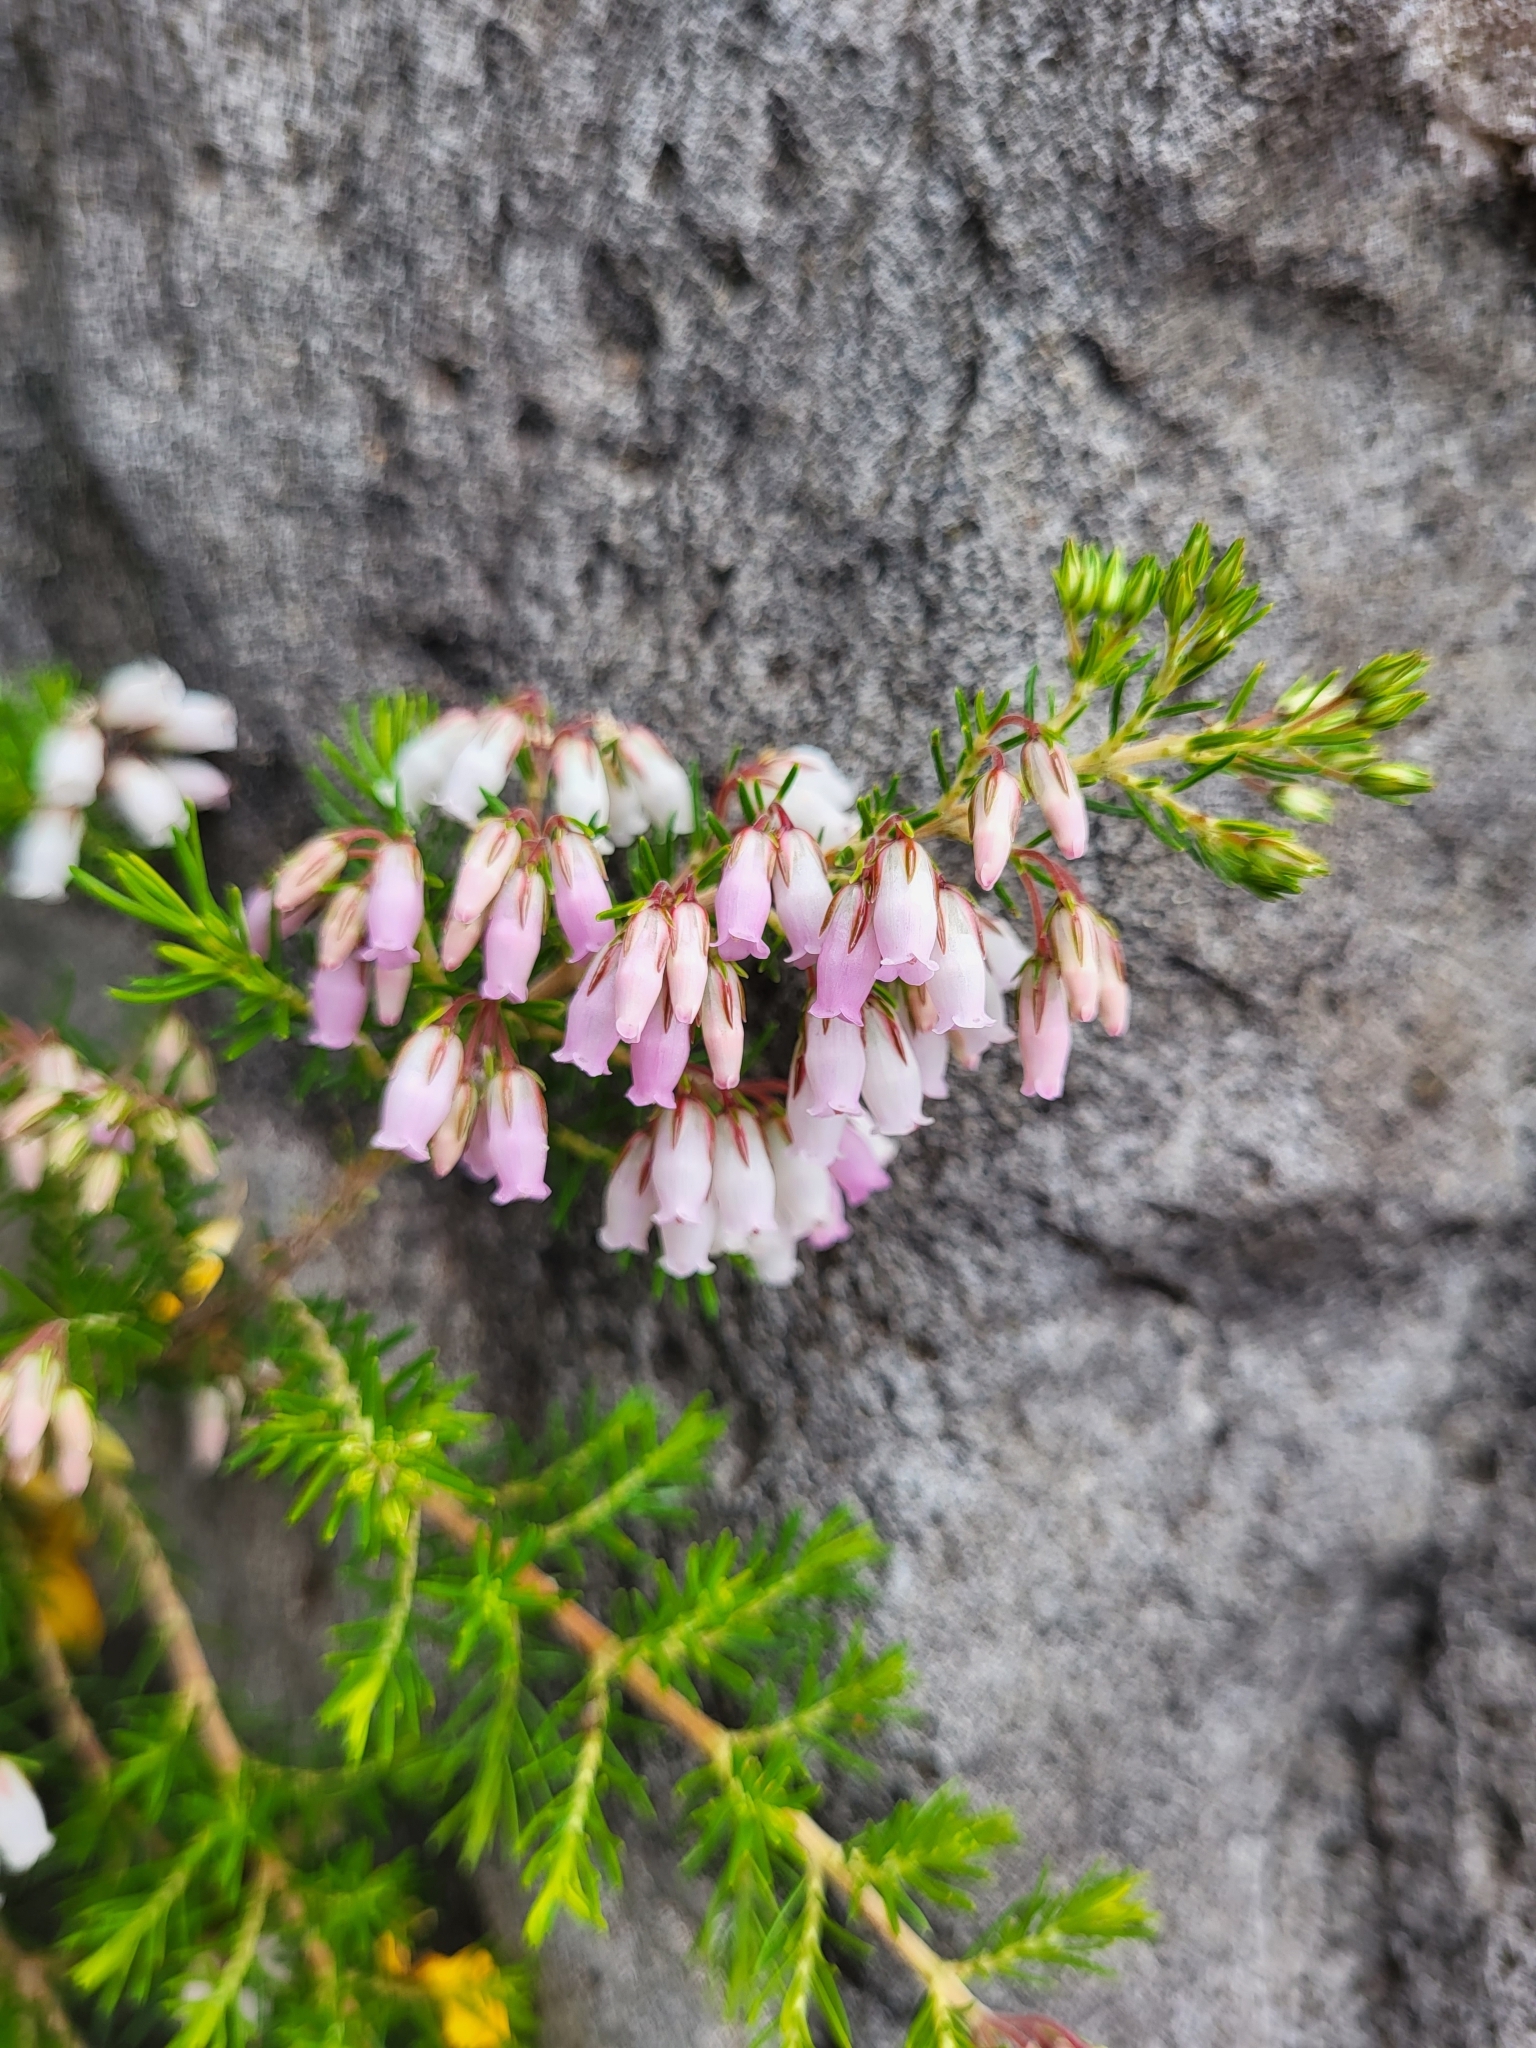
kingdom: Plantae
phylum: Tracheophyta
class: Magnoliopsida
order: Ericales
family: Ericaceae
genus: Erica
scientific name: Erica maderensis
